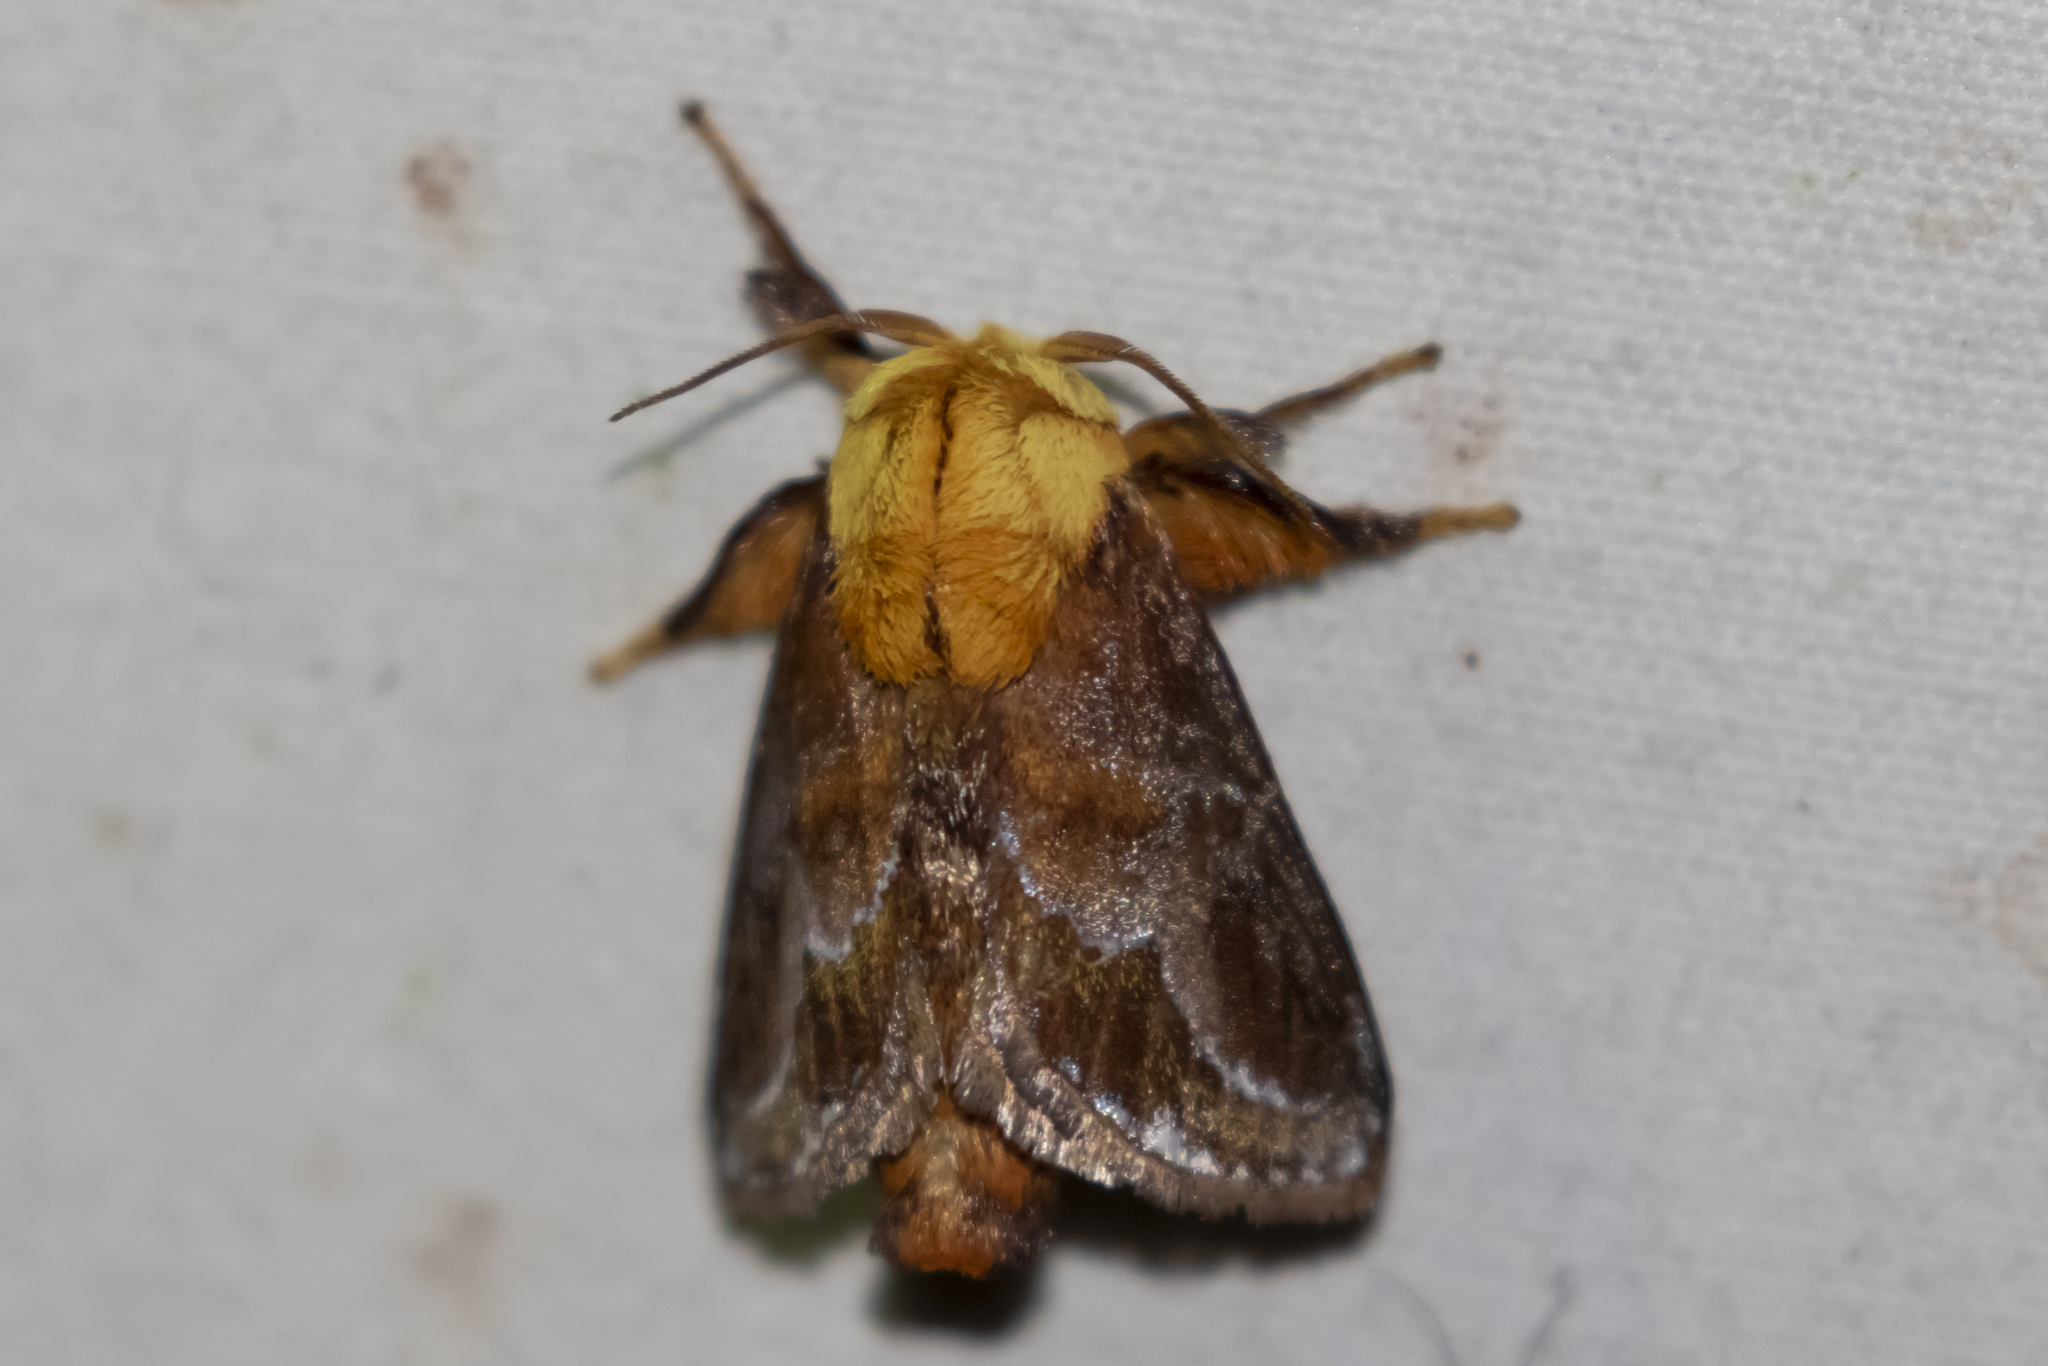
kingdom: Animalia
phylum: Arthropoda
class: Insecta
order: Lepidoptera
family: Limacodidae
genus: Miresa
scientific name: Miresa clarissa
